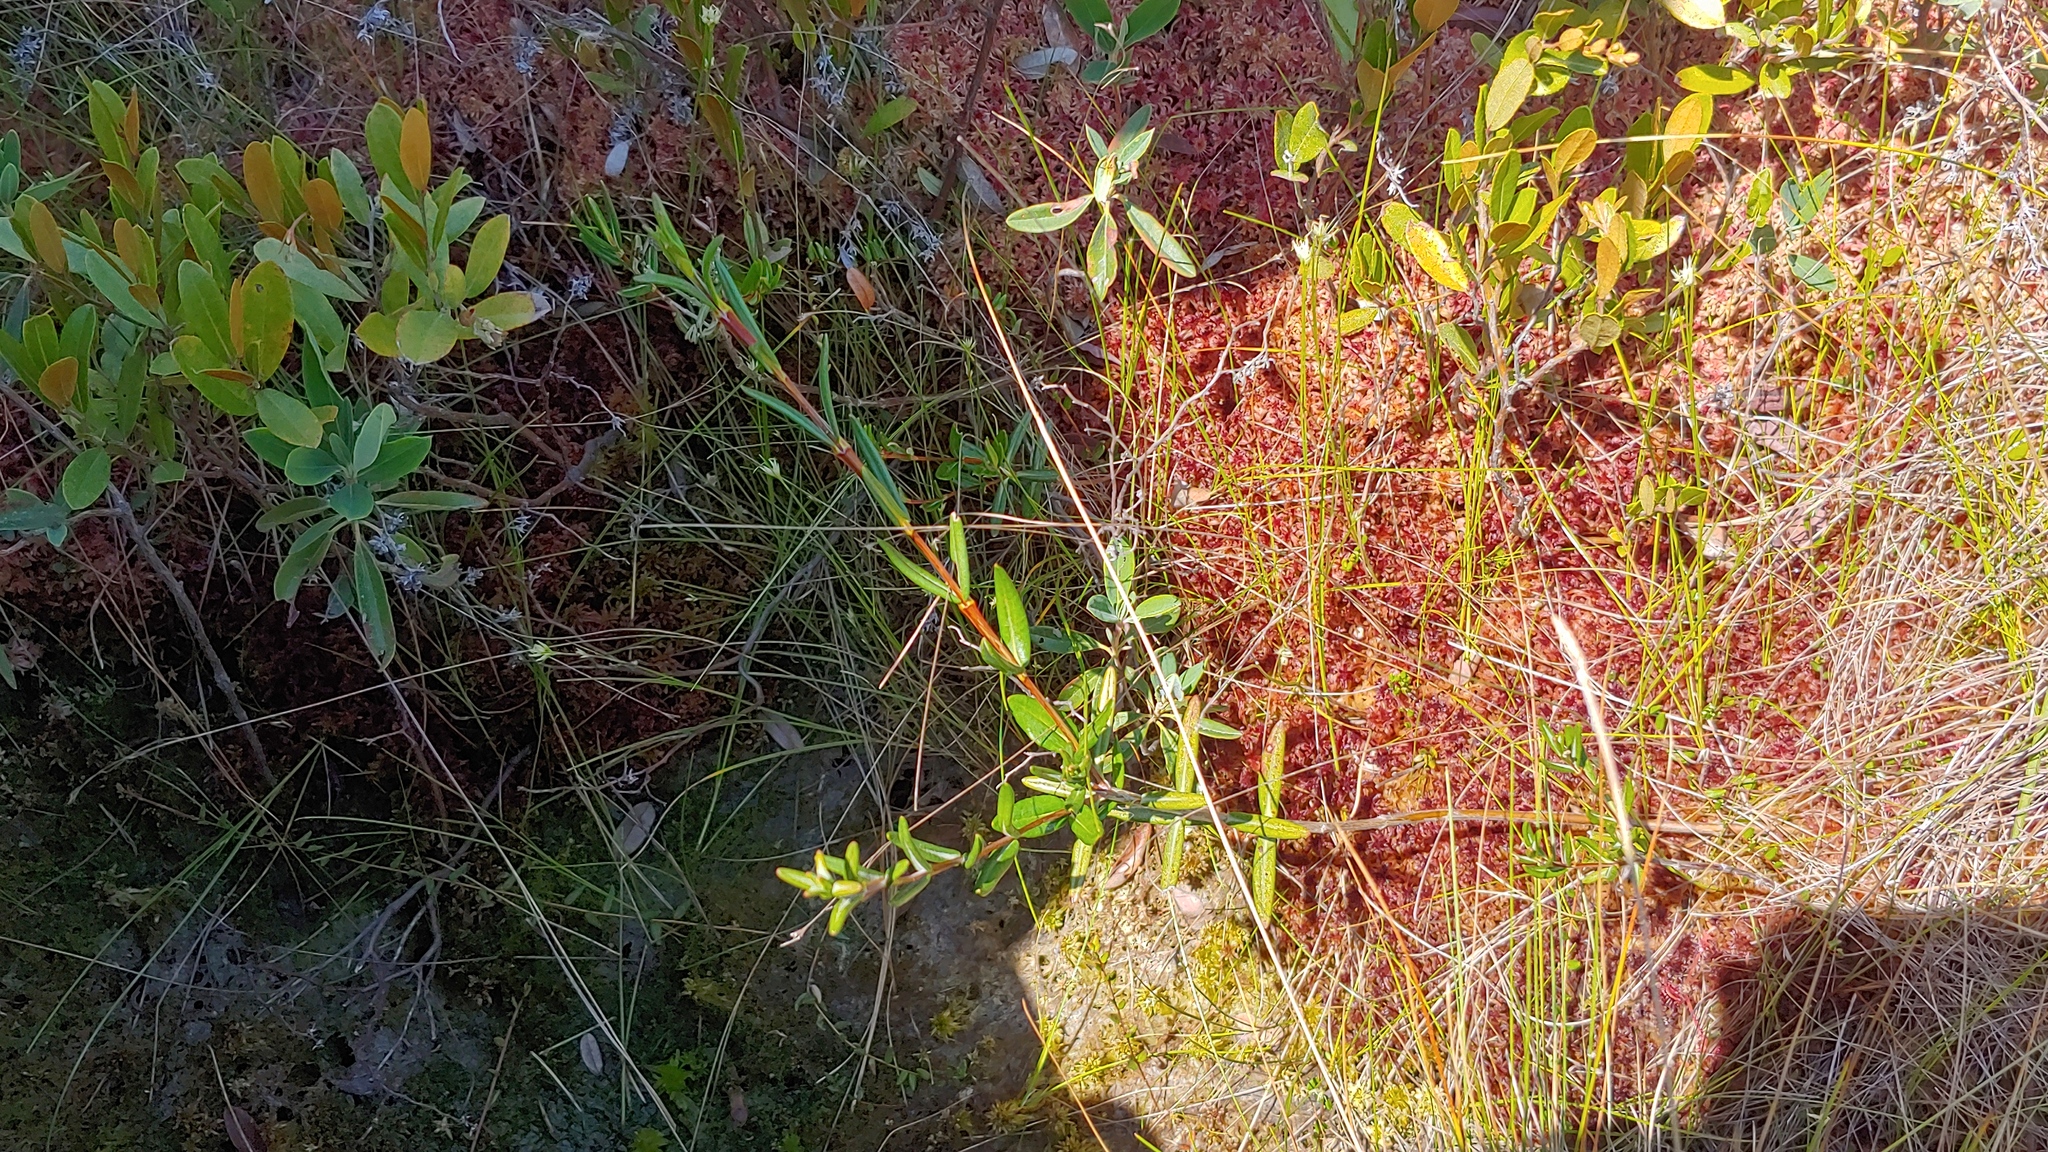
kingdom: Plantae
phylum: Tracheophyta
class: Magnoliopsida
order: Ericales
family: Ericaceae
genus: Kalmia
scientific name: Kalmia polifolia
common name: Bog-laurel
